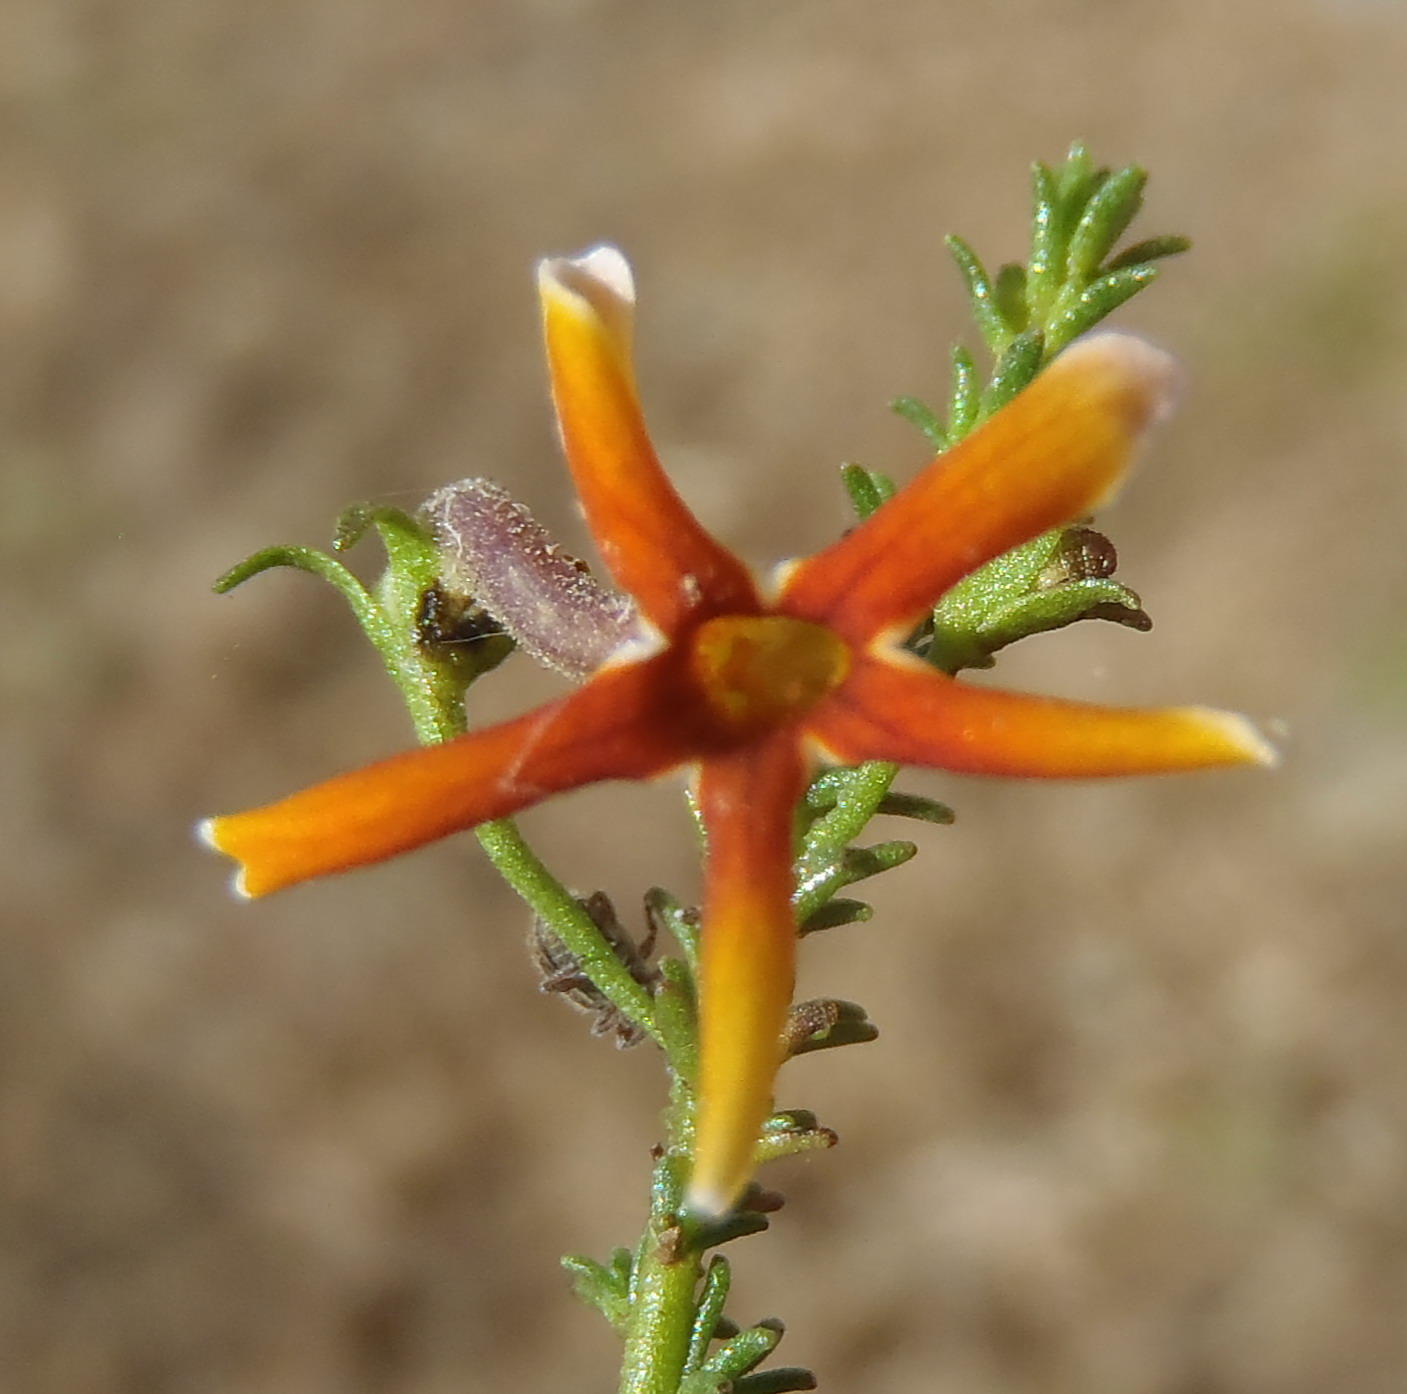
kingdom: Plantae
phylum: Tracheophyta
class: Magnoliopsida
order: Lamiales
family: Scrophulariaceae
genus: Jamesbrittenia
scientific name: Jamesbrittenia atropurpurea
